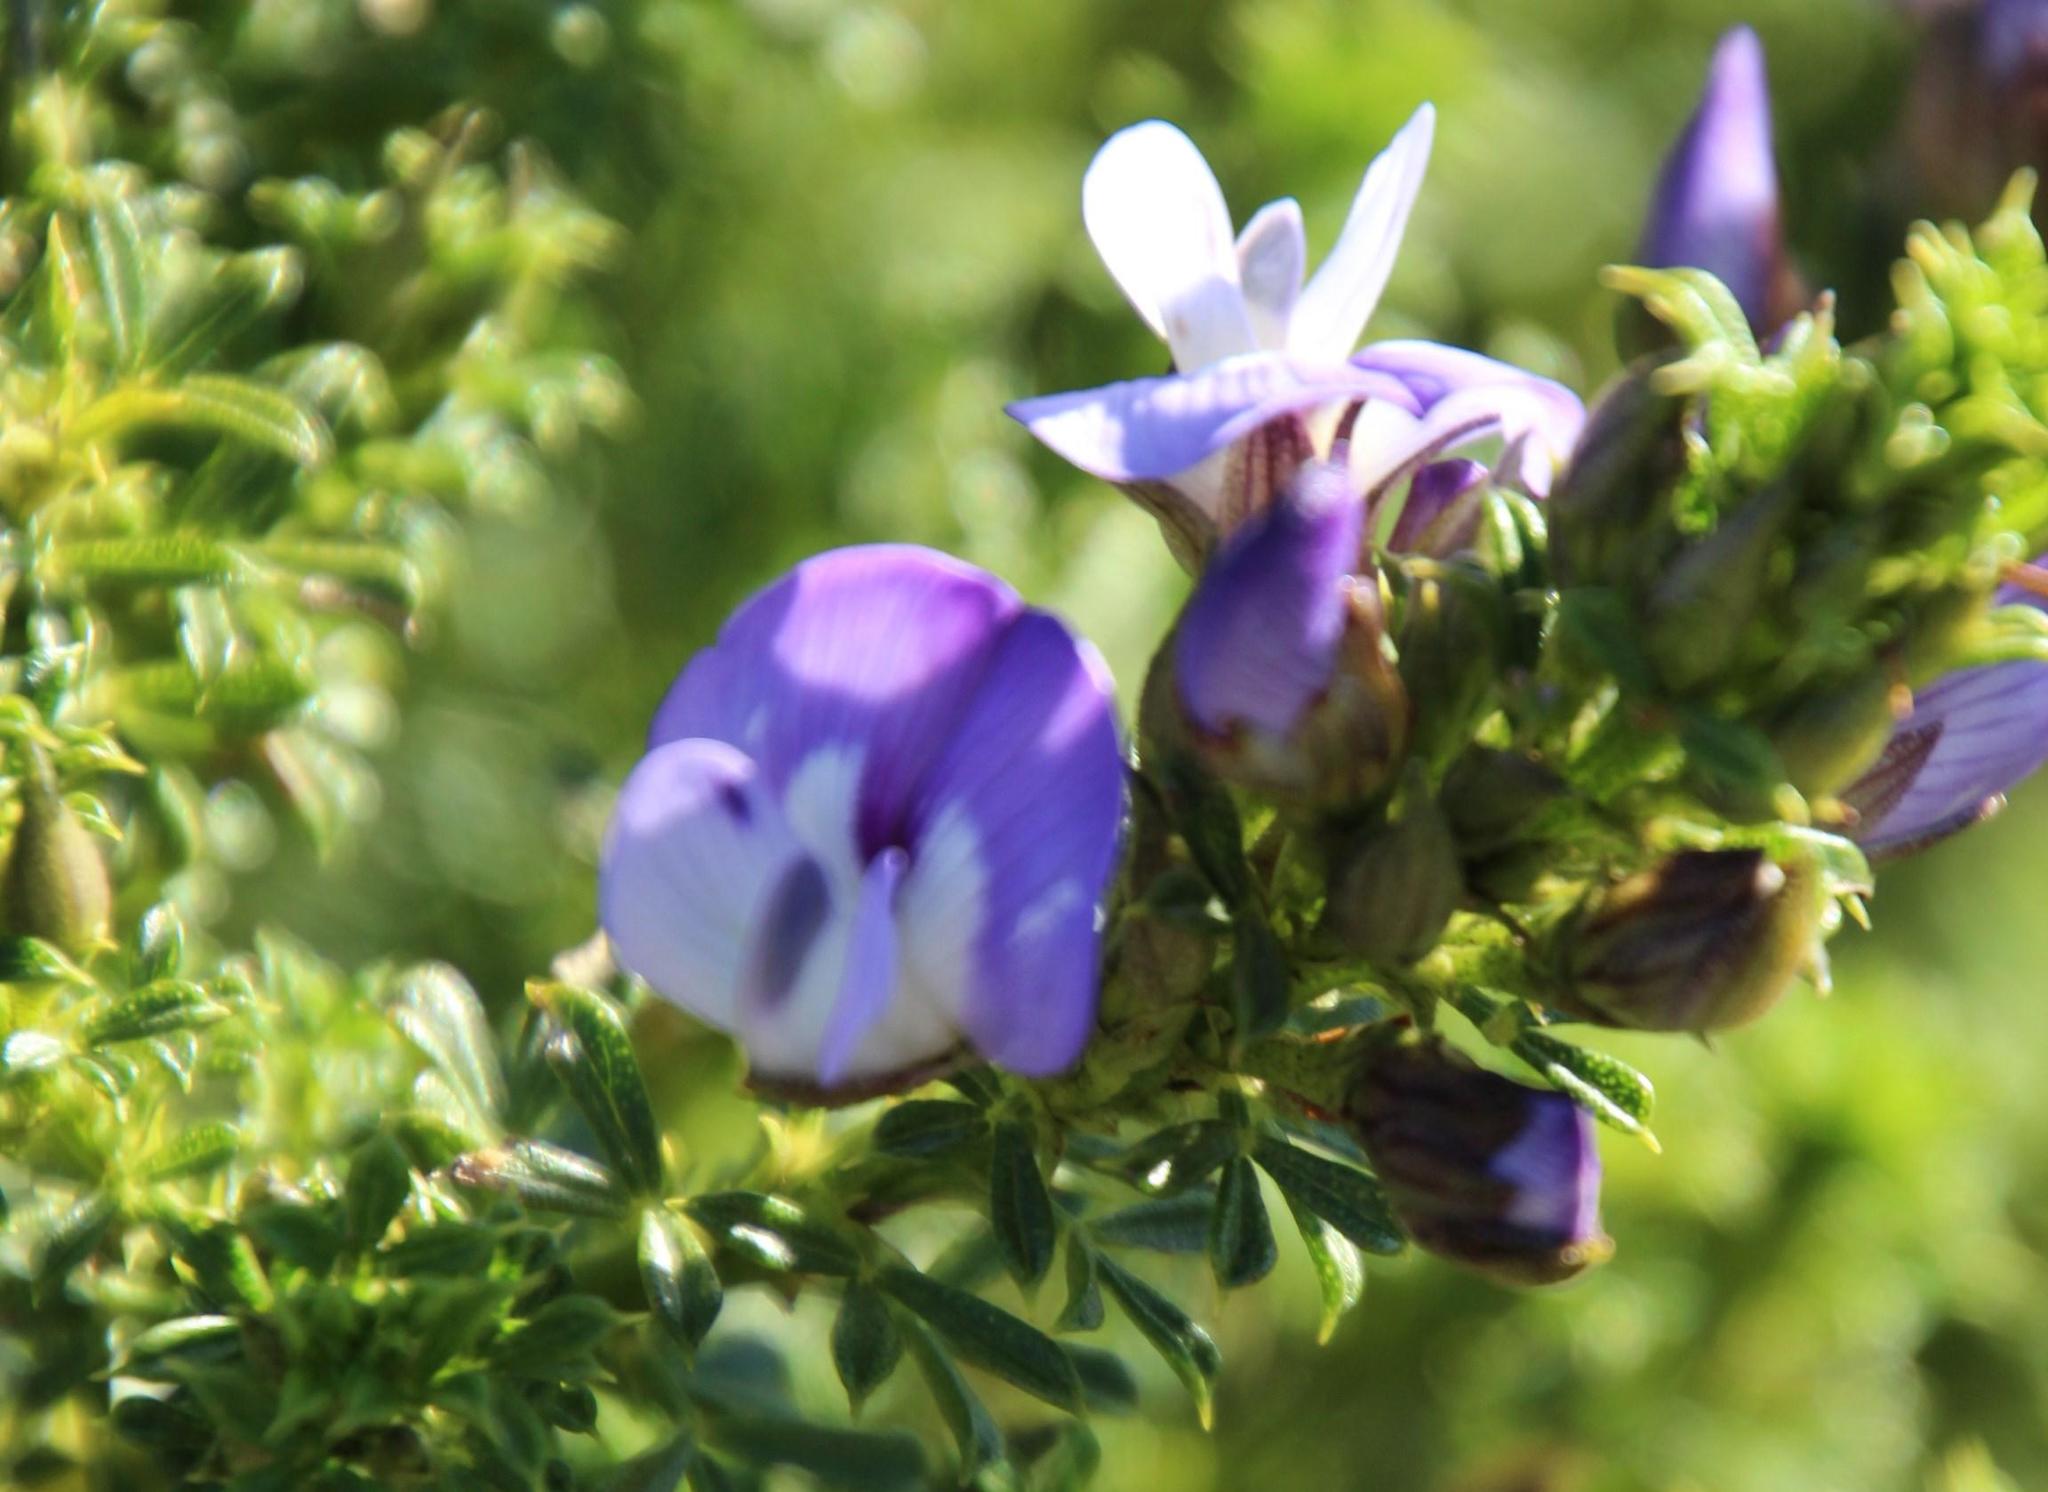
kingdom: Plantae
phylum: Tracheophyta
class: Magnoliopsida
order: Fabales
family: Fabaceae
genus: Psoralea
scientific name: Psoralea aculeata
